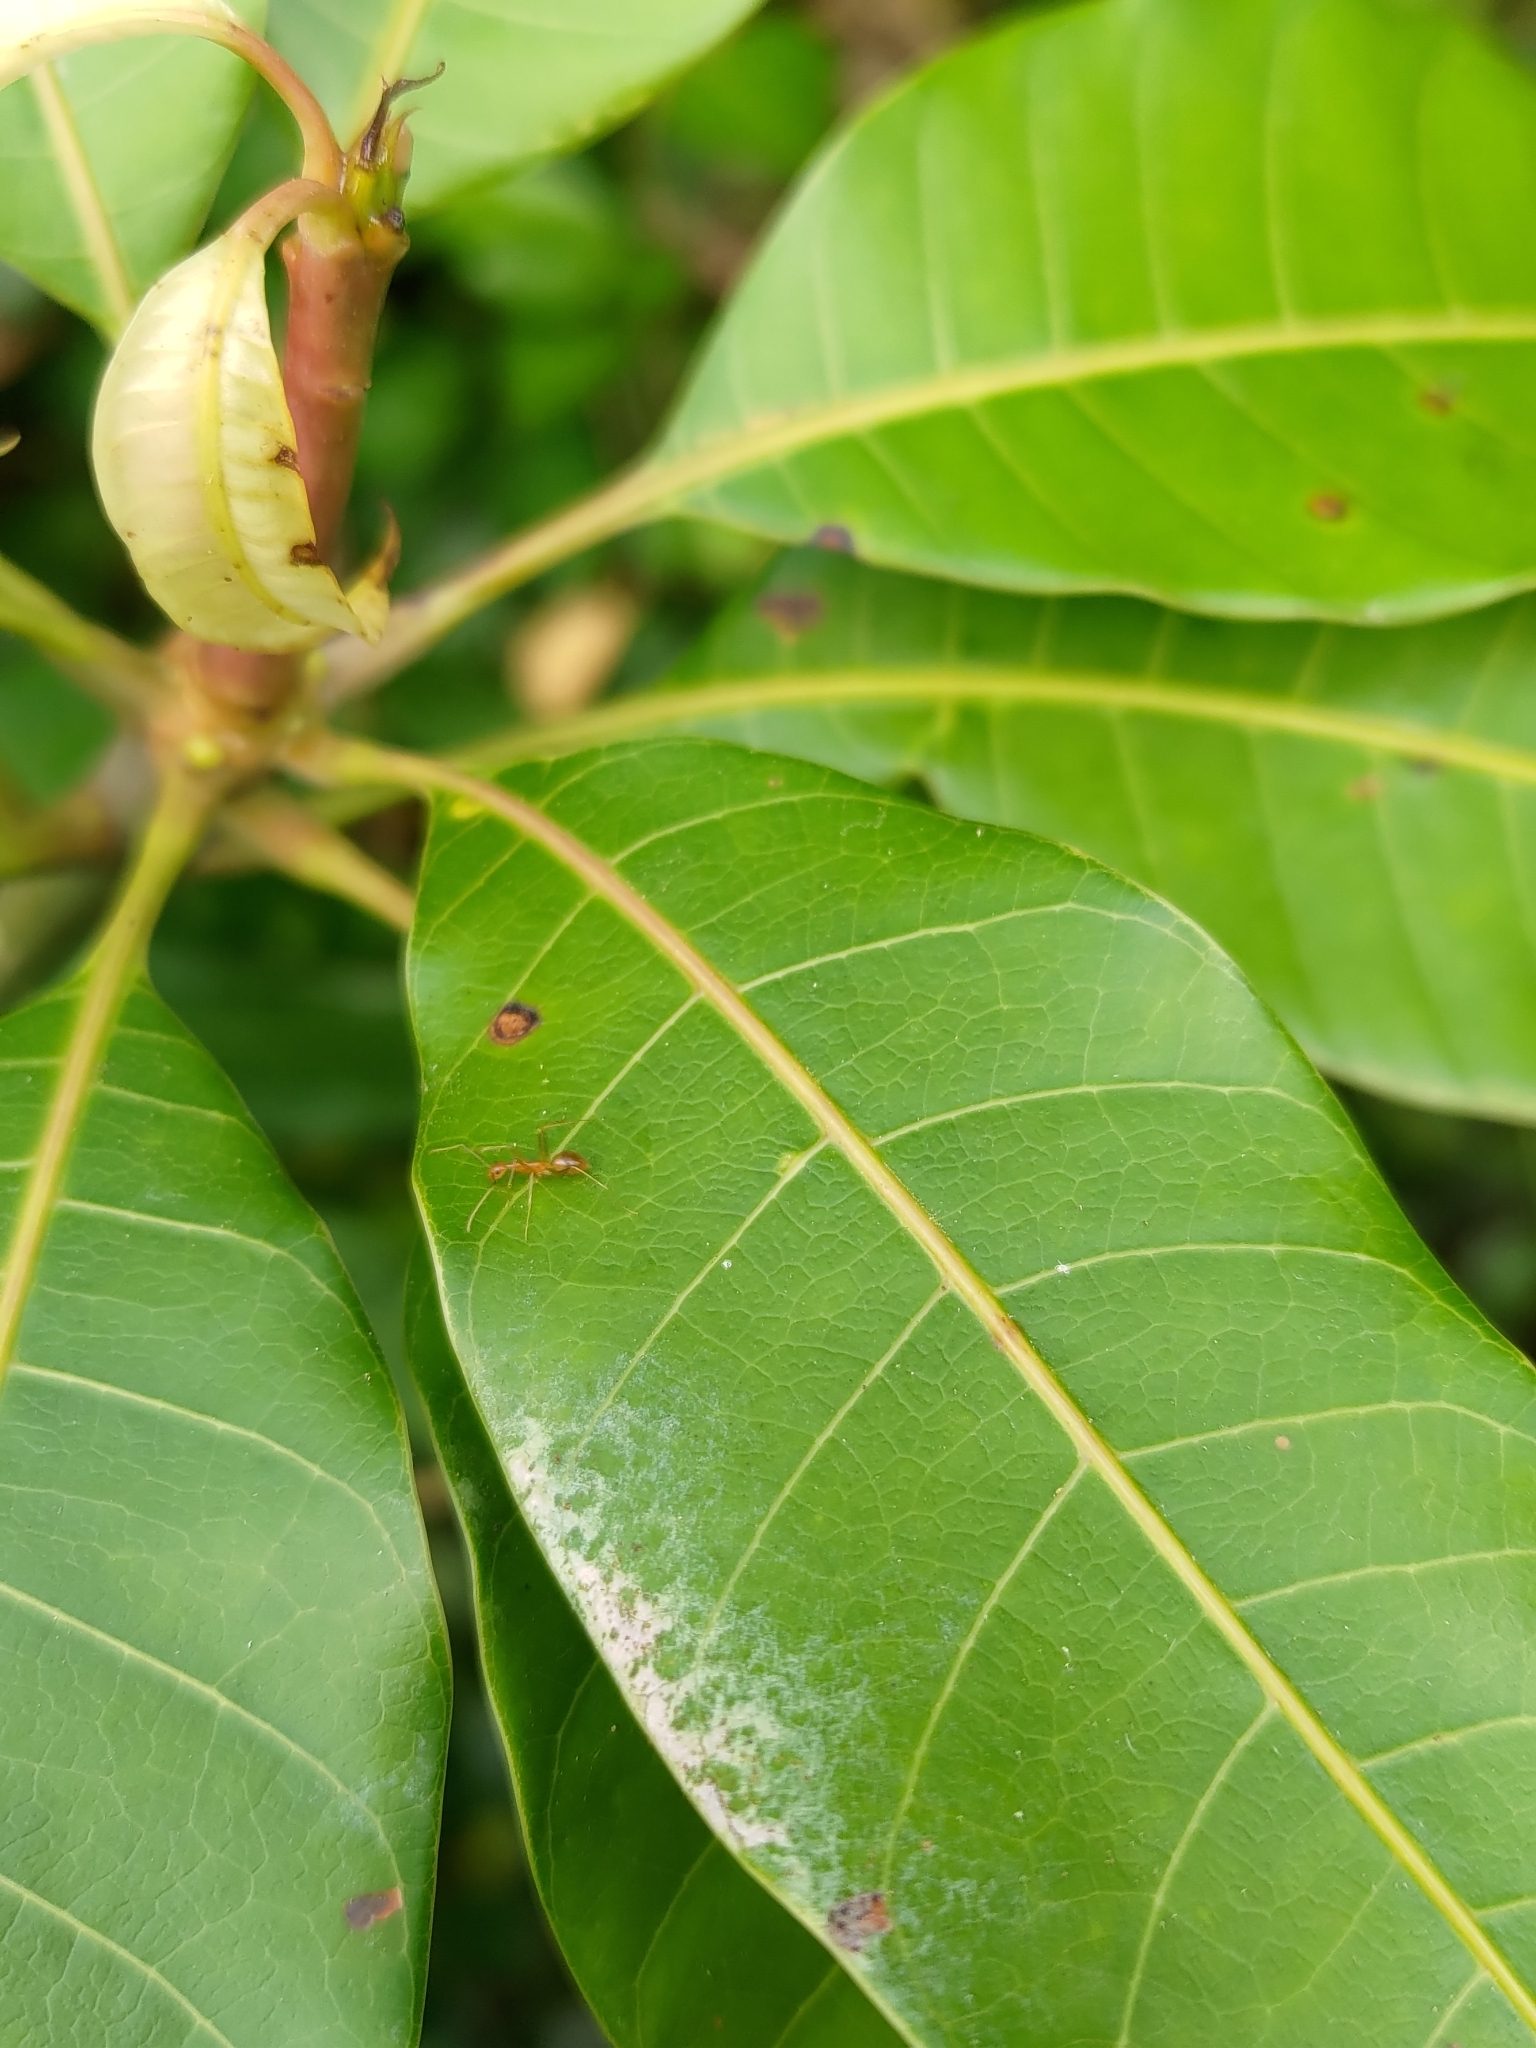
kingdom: Animalia
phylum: Arthropoda
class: Insecta
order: Hymenoptera
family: Formicidae
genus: Anoplolepis
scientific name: Anoplolepis gracilipes
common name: Ant
